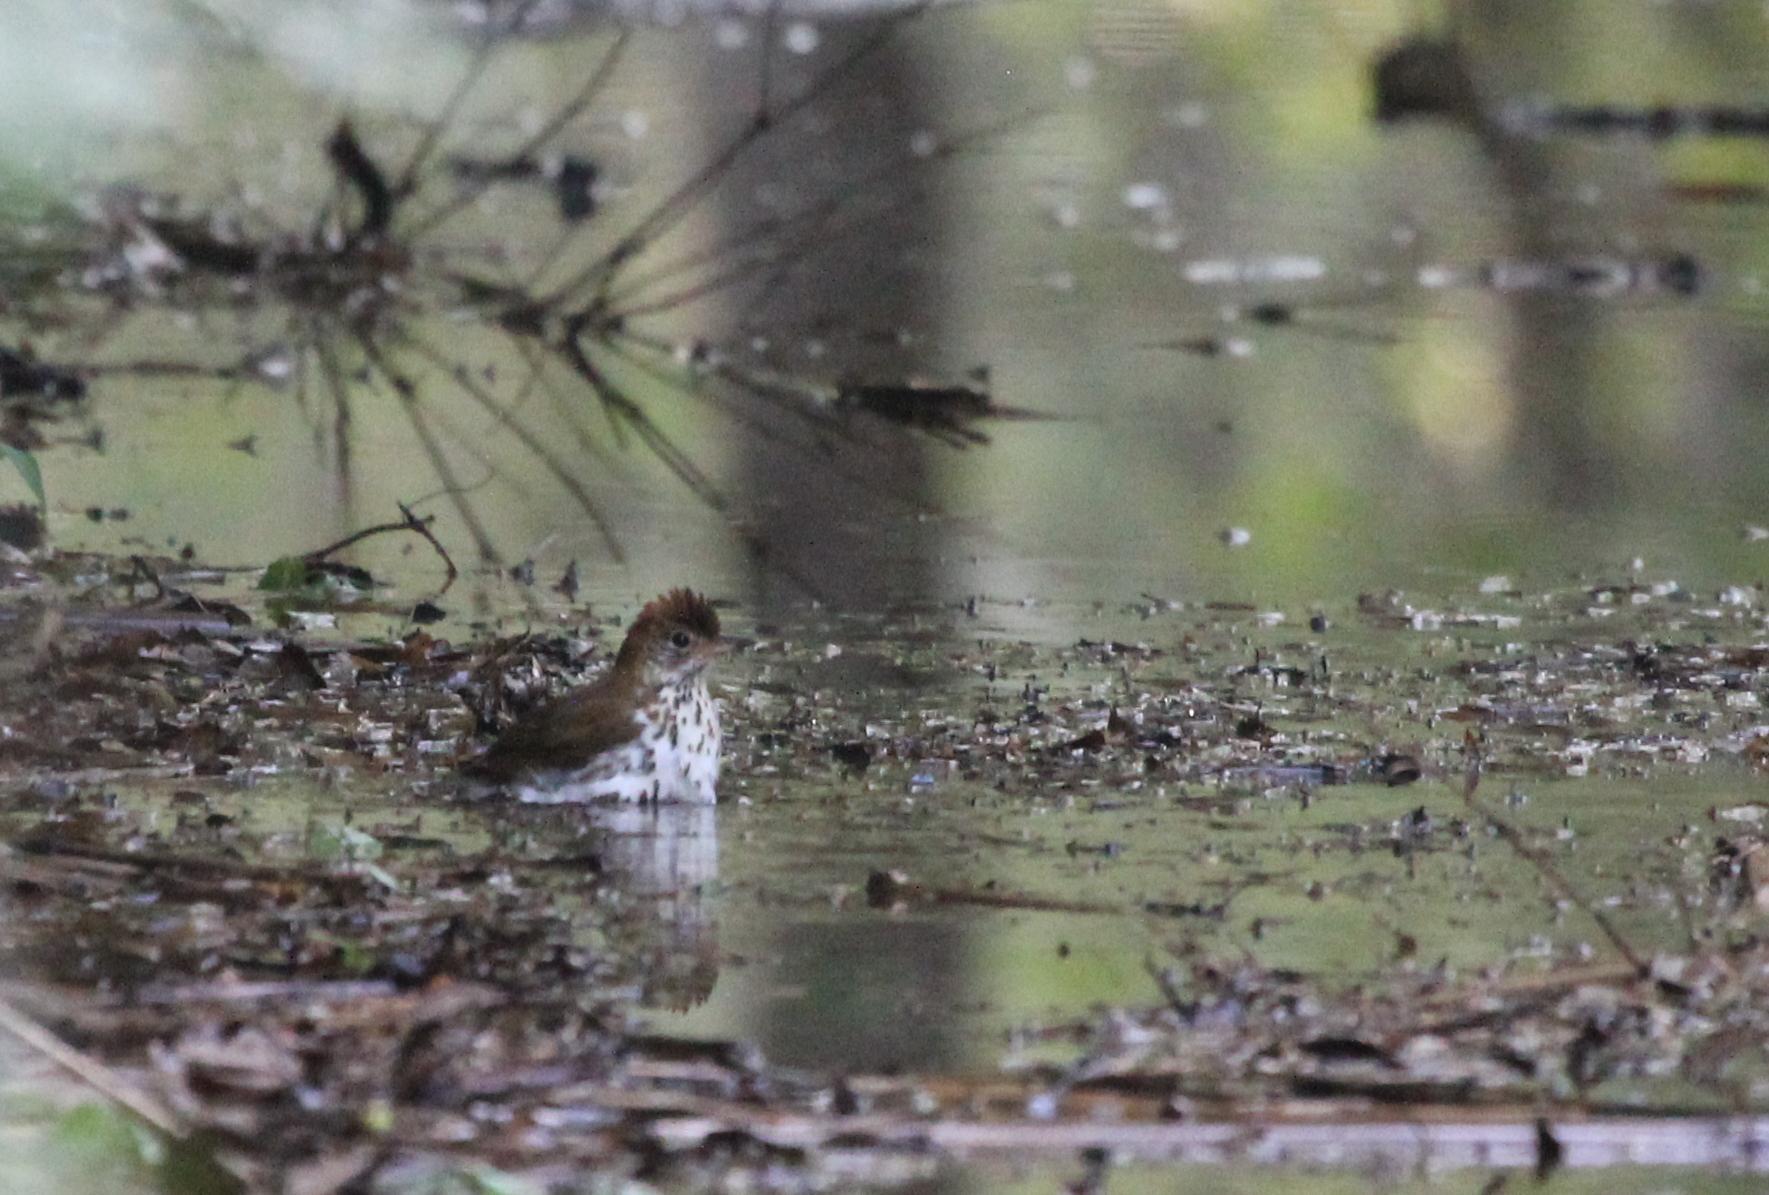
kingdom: Animalia
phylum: Chordata
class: Aves
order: Passeriformes
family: Turdidae
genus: Hylocichla
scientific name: Hylocichla mustelina
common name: Wood thrush
